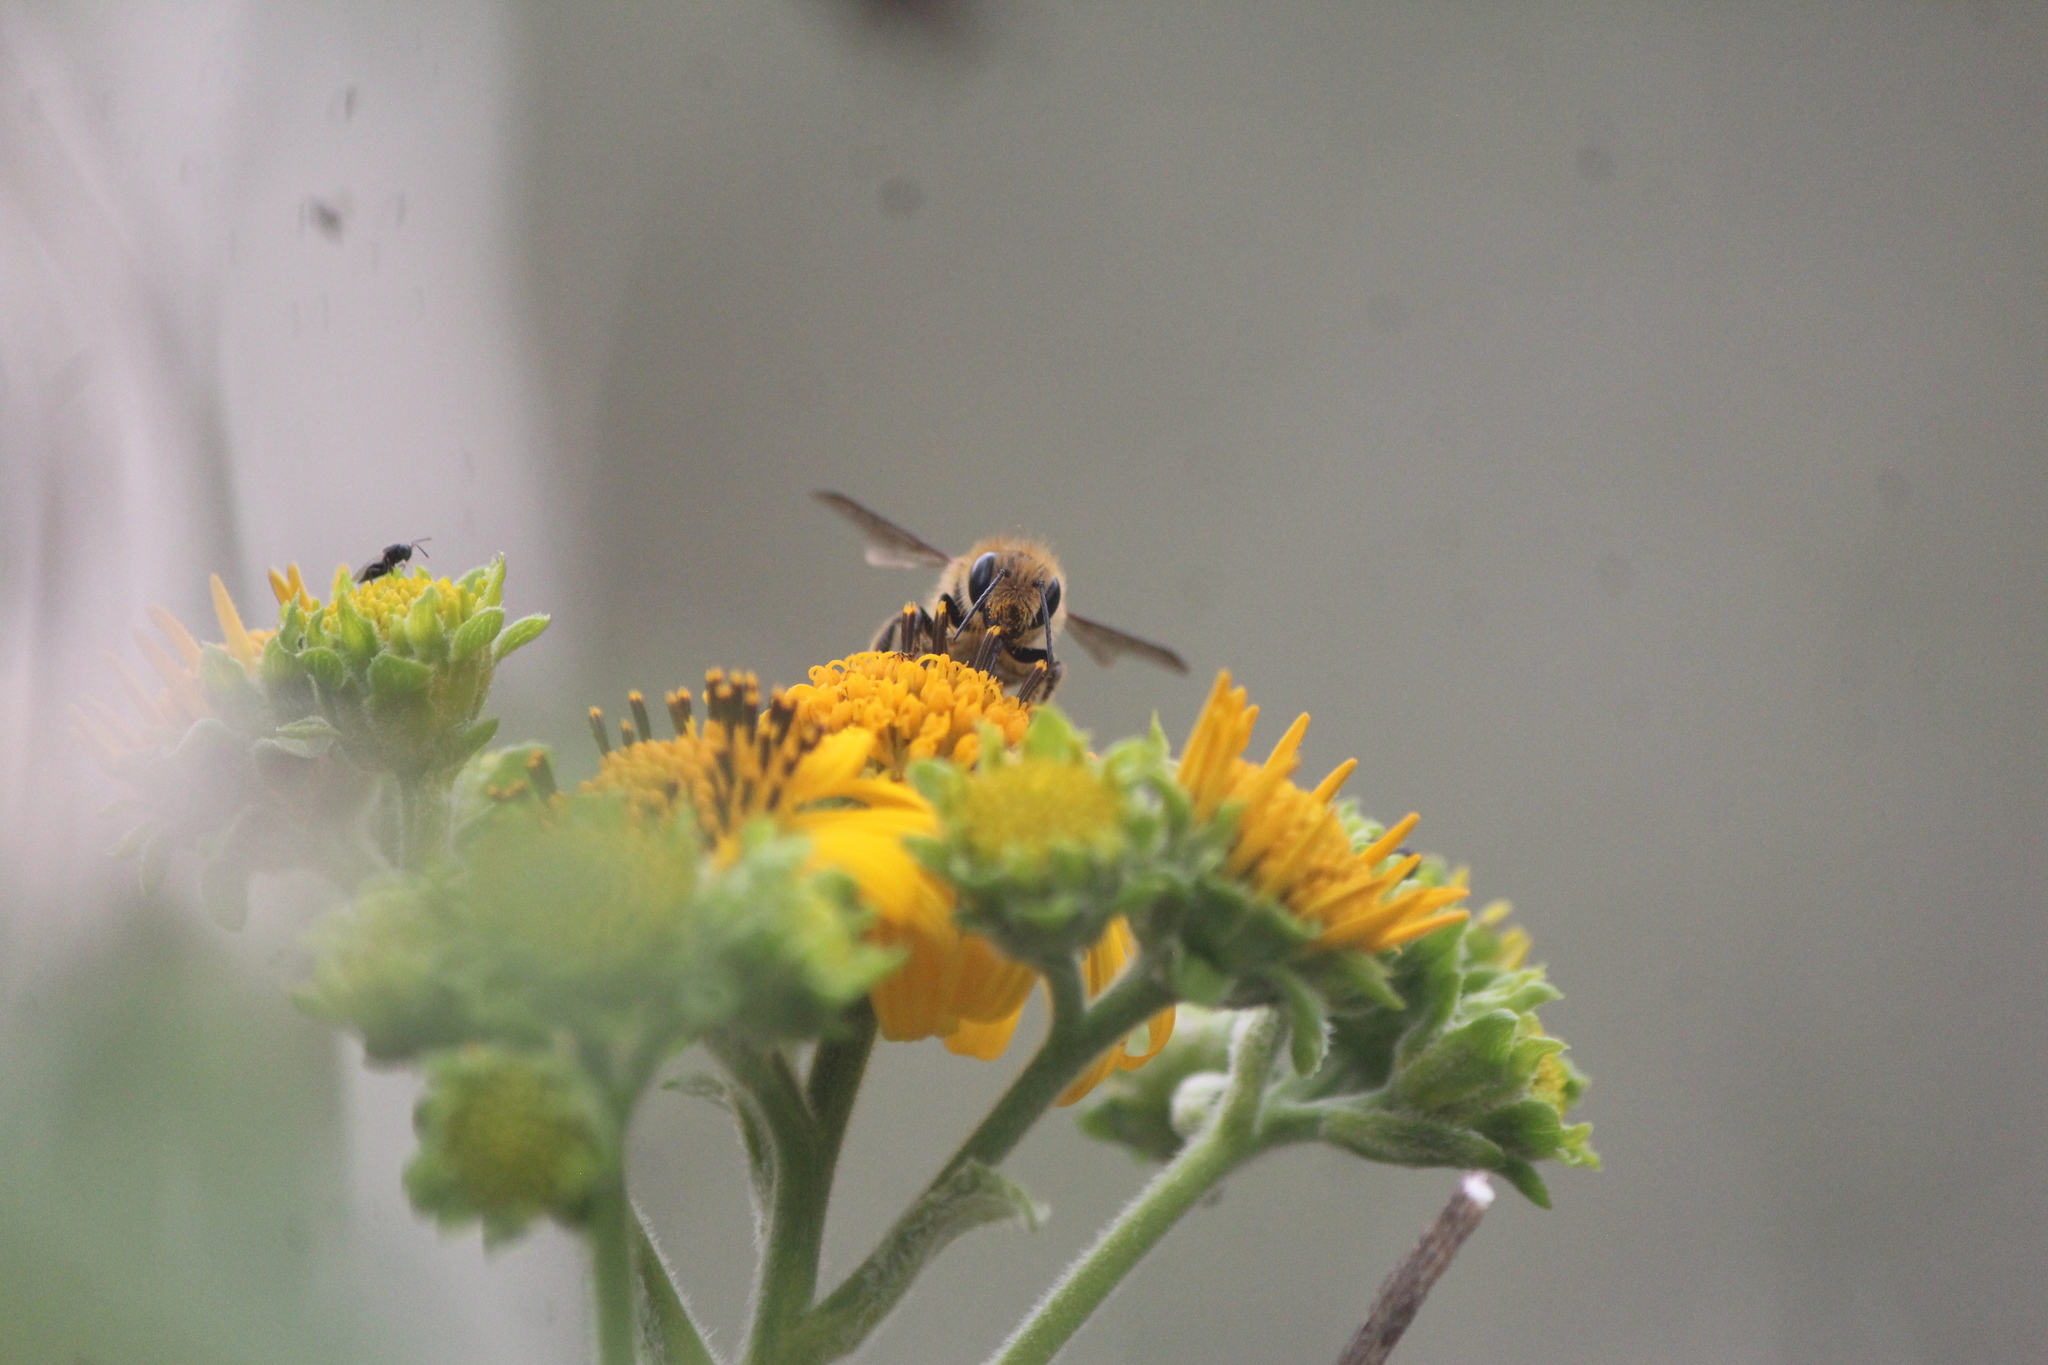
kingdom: Animalia
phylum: Arthropoda
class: Insecta
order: Hymenoptera
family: Megachilidae
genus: Osmia
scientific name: Osmia azteca
